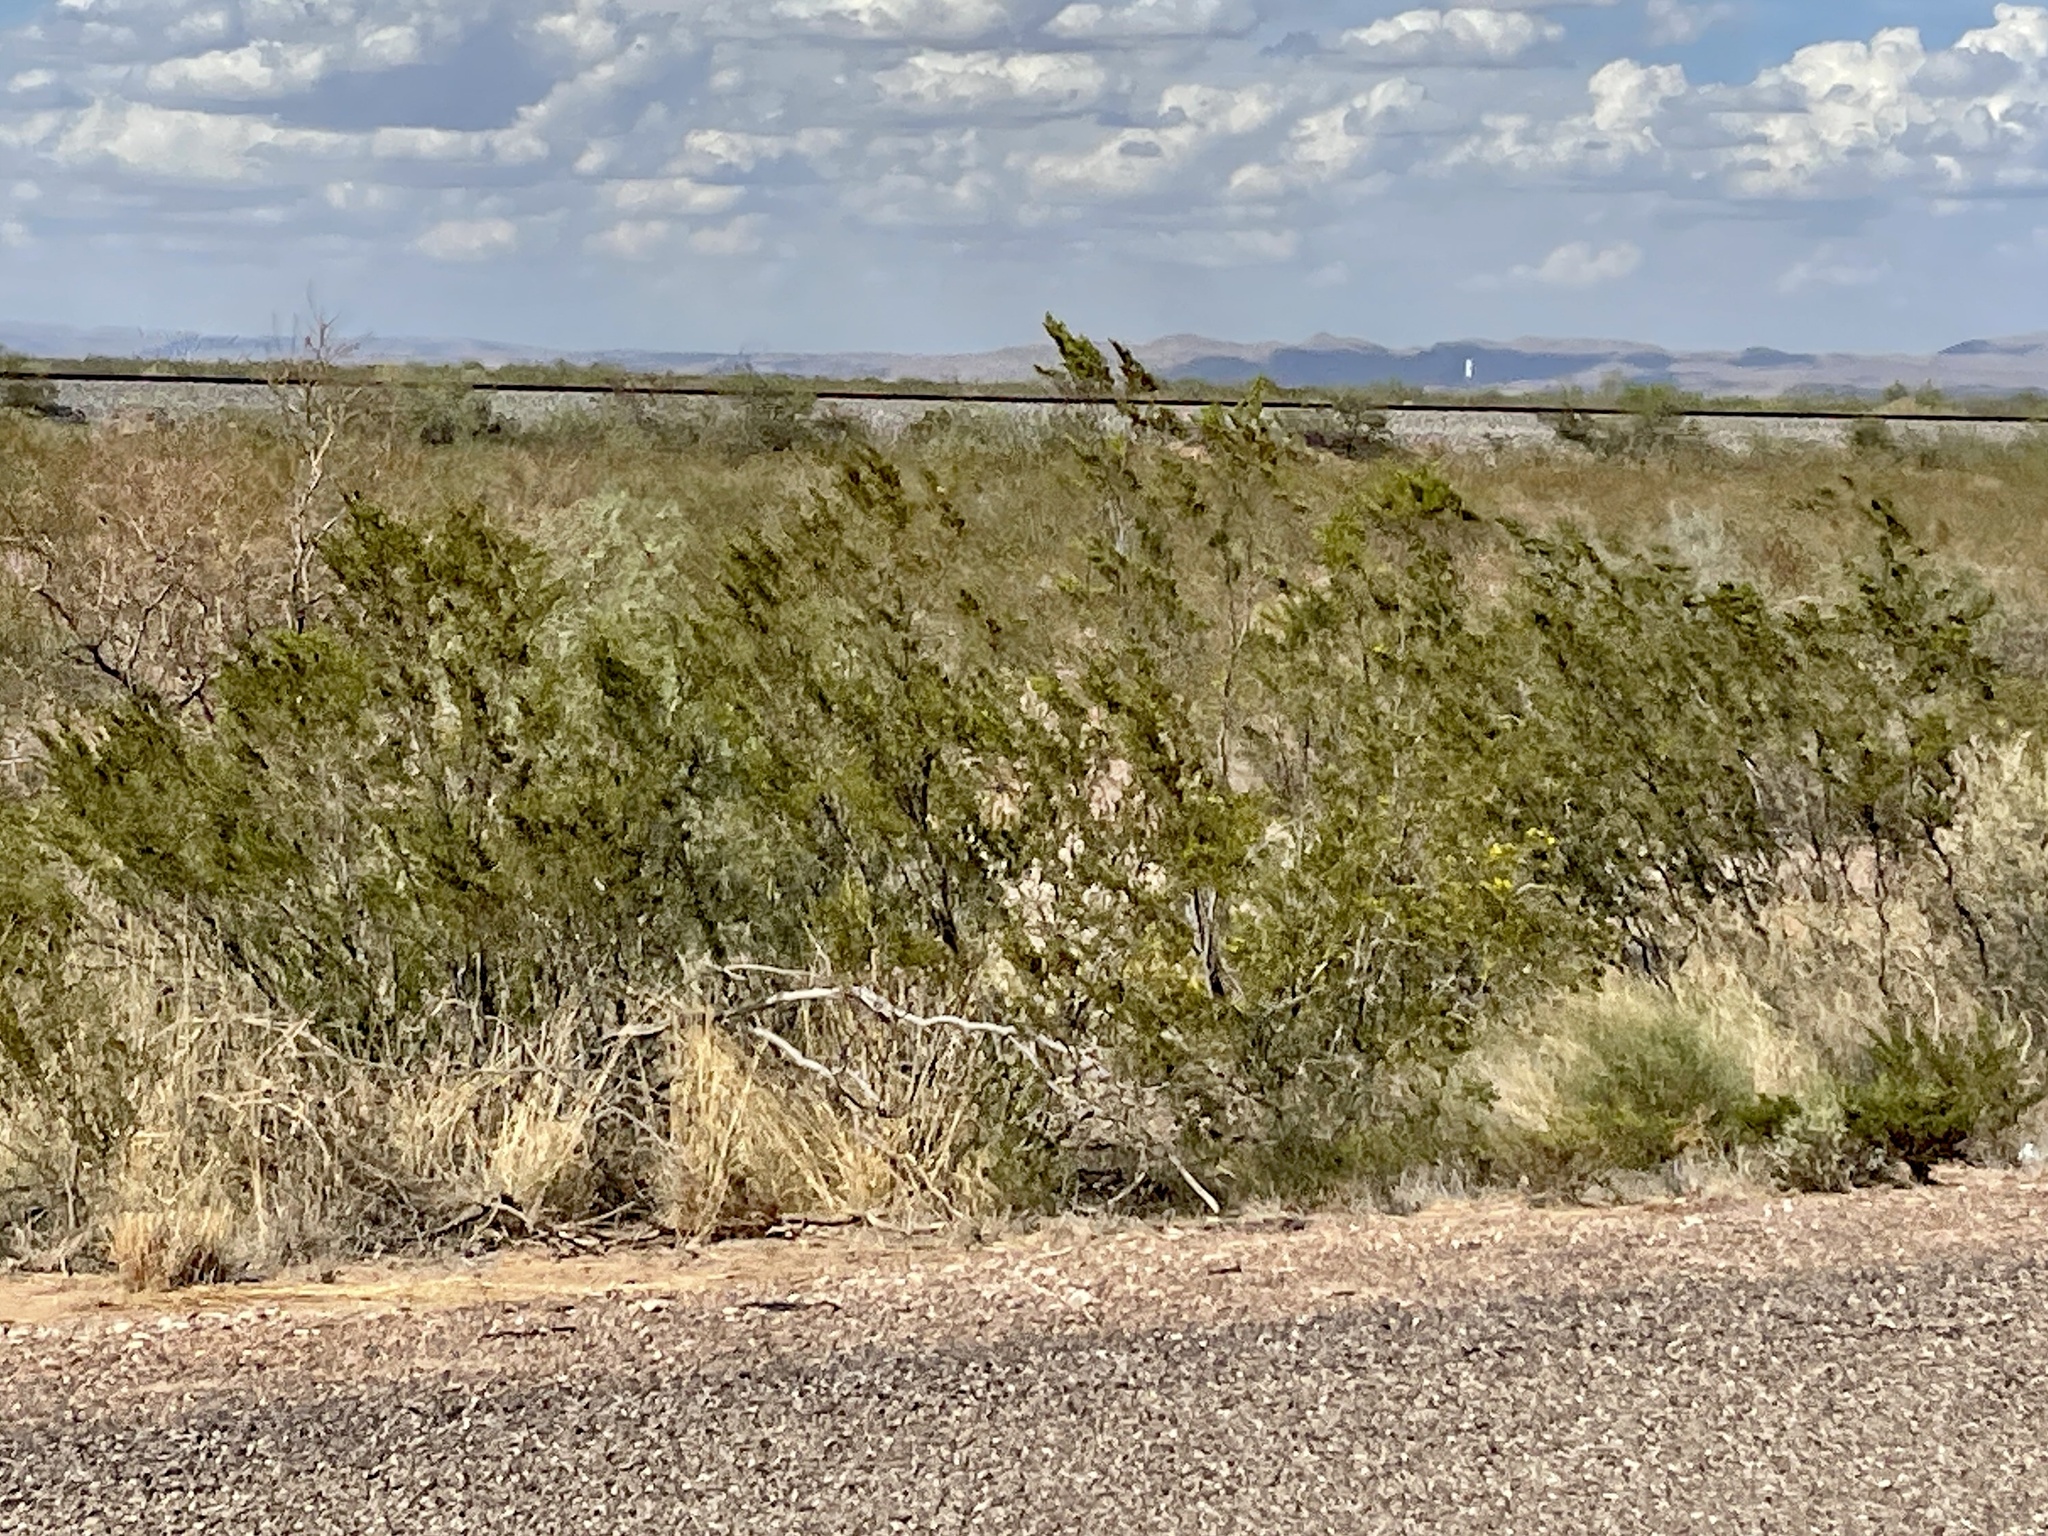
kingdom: Plantae
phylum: Tracheophyta
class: Magnoliopsida
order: Zygophyllales
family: Zygophyllaceae
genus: Larrea
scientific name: Larrea tridentata
